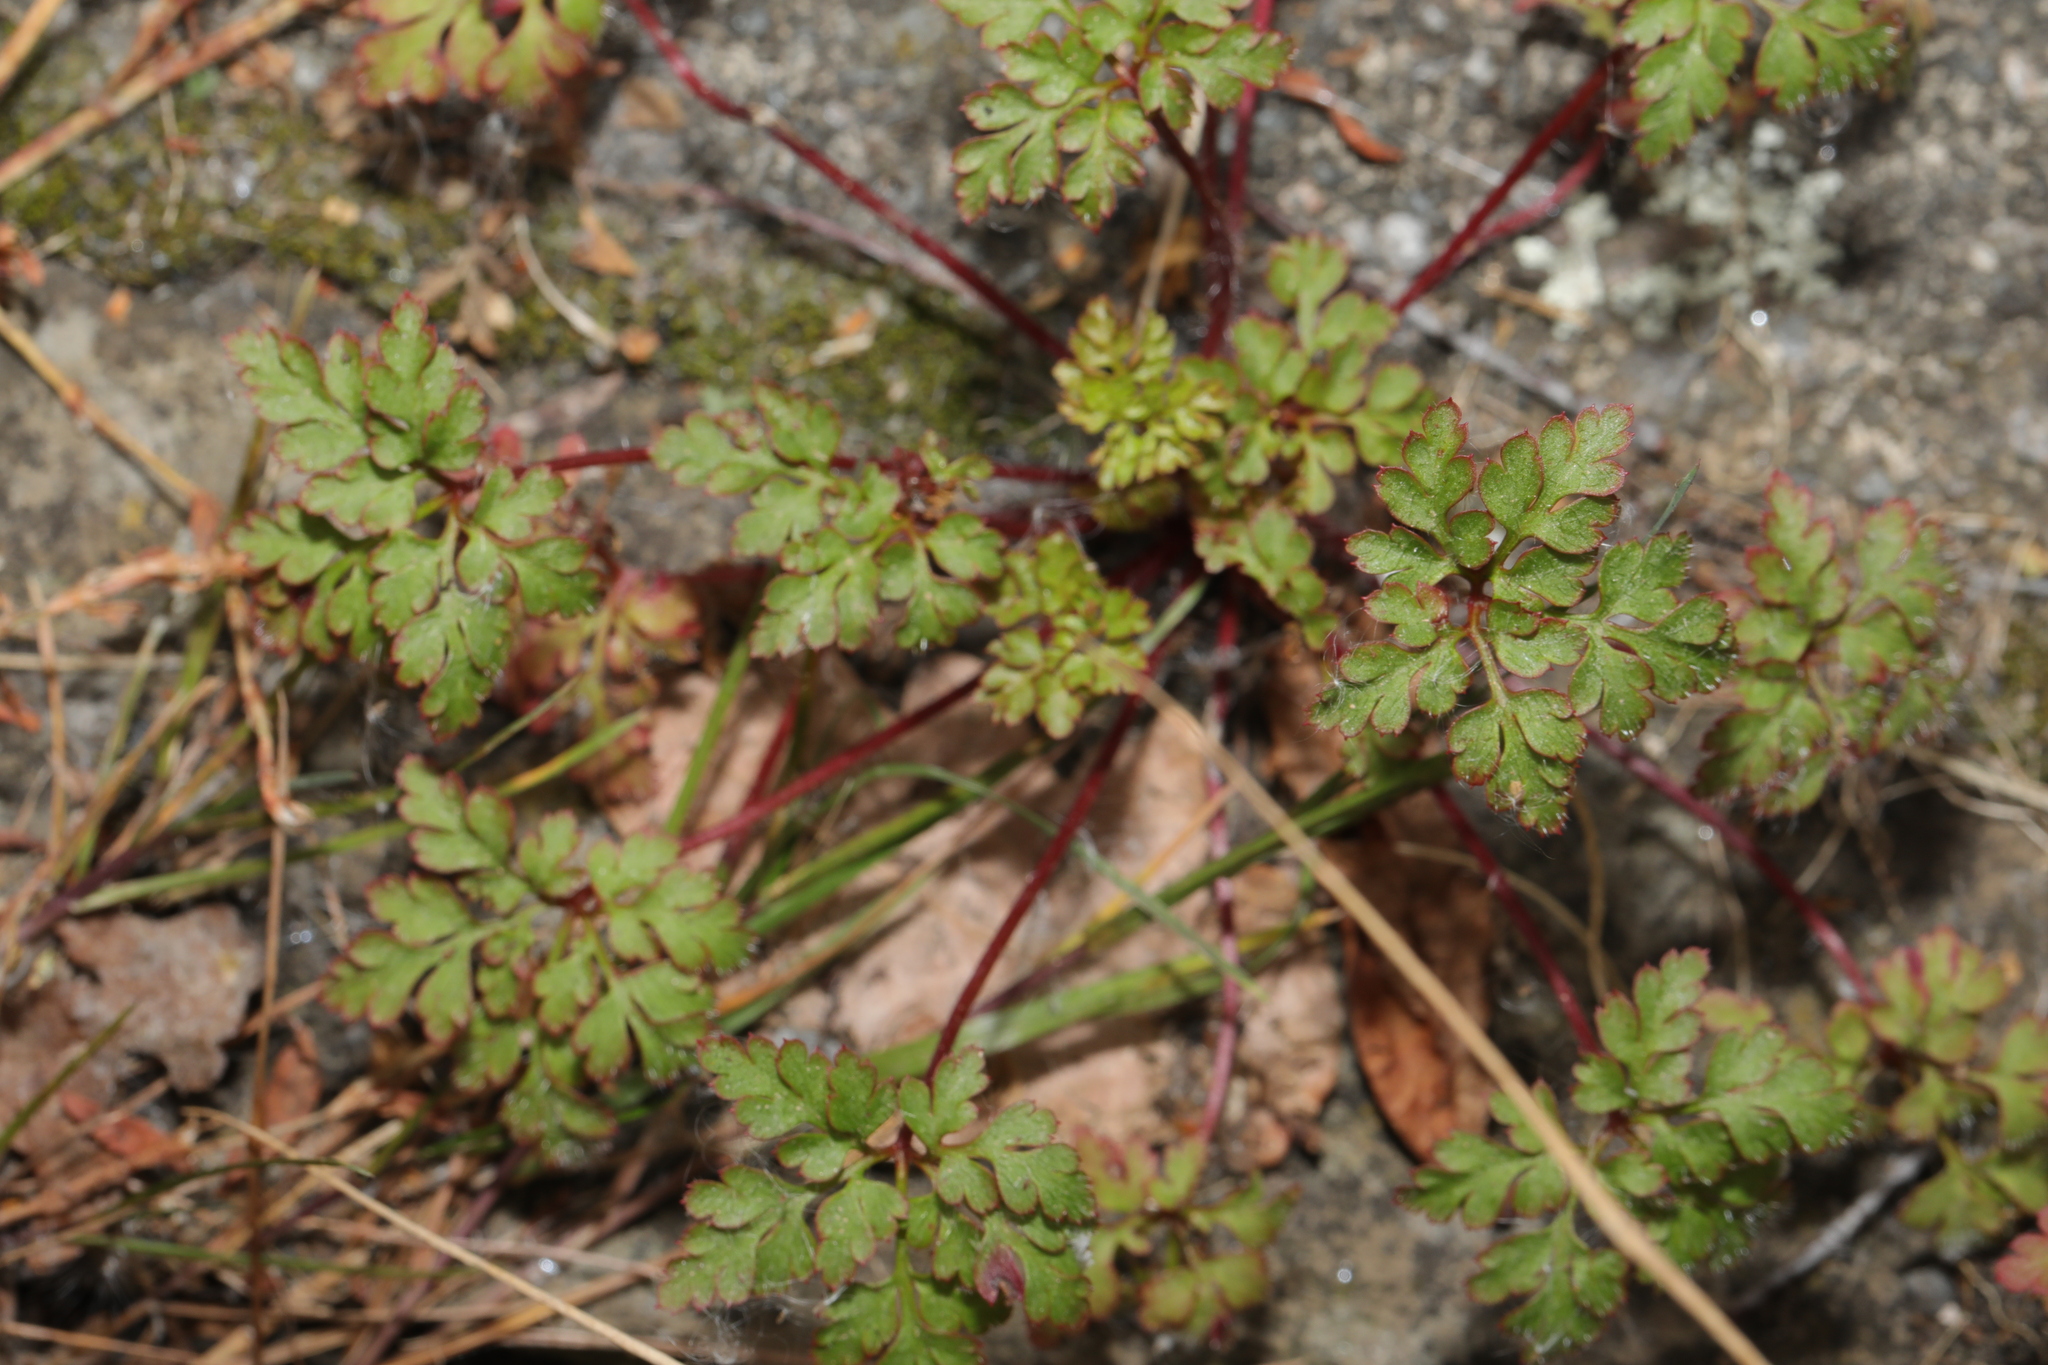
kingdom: Plantae
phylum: Tracheophyta
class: Magnoliopsida
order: Geraniales
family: Geraniaceae
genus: Geranium
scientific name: Geranium robertianum
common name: Herb-robert
